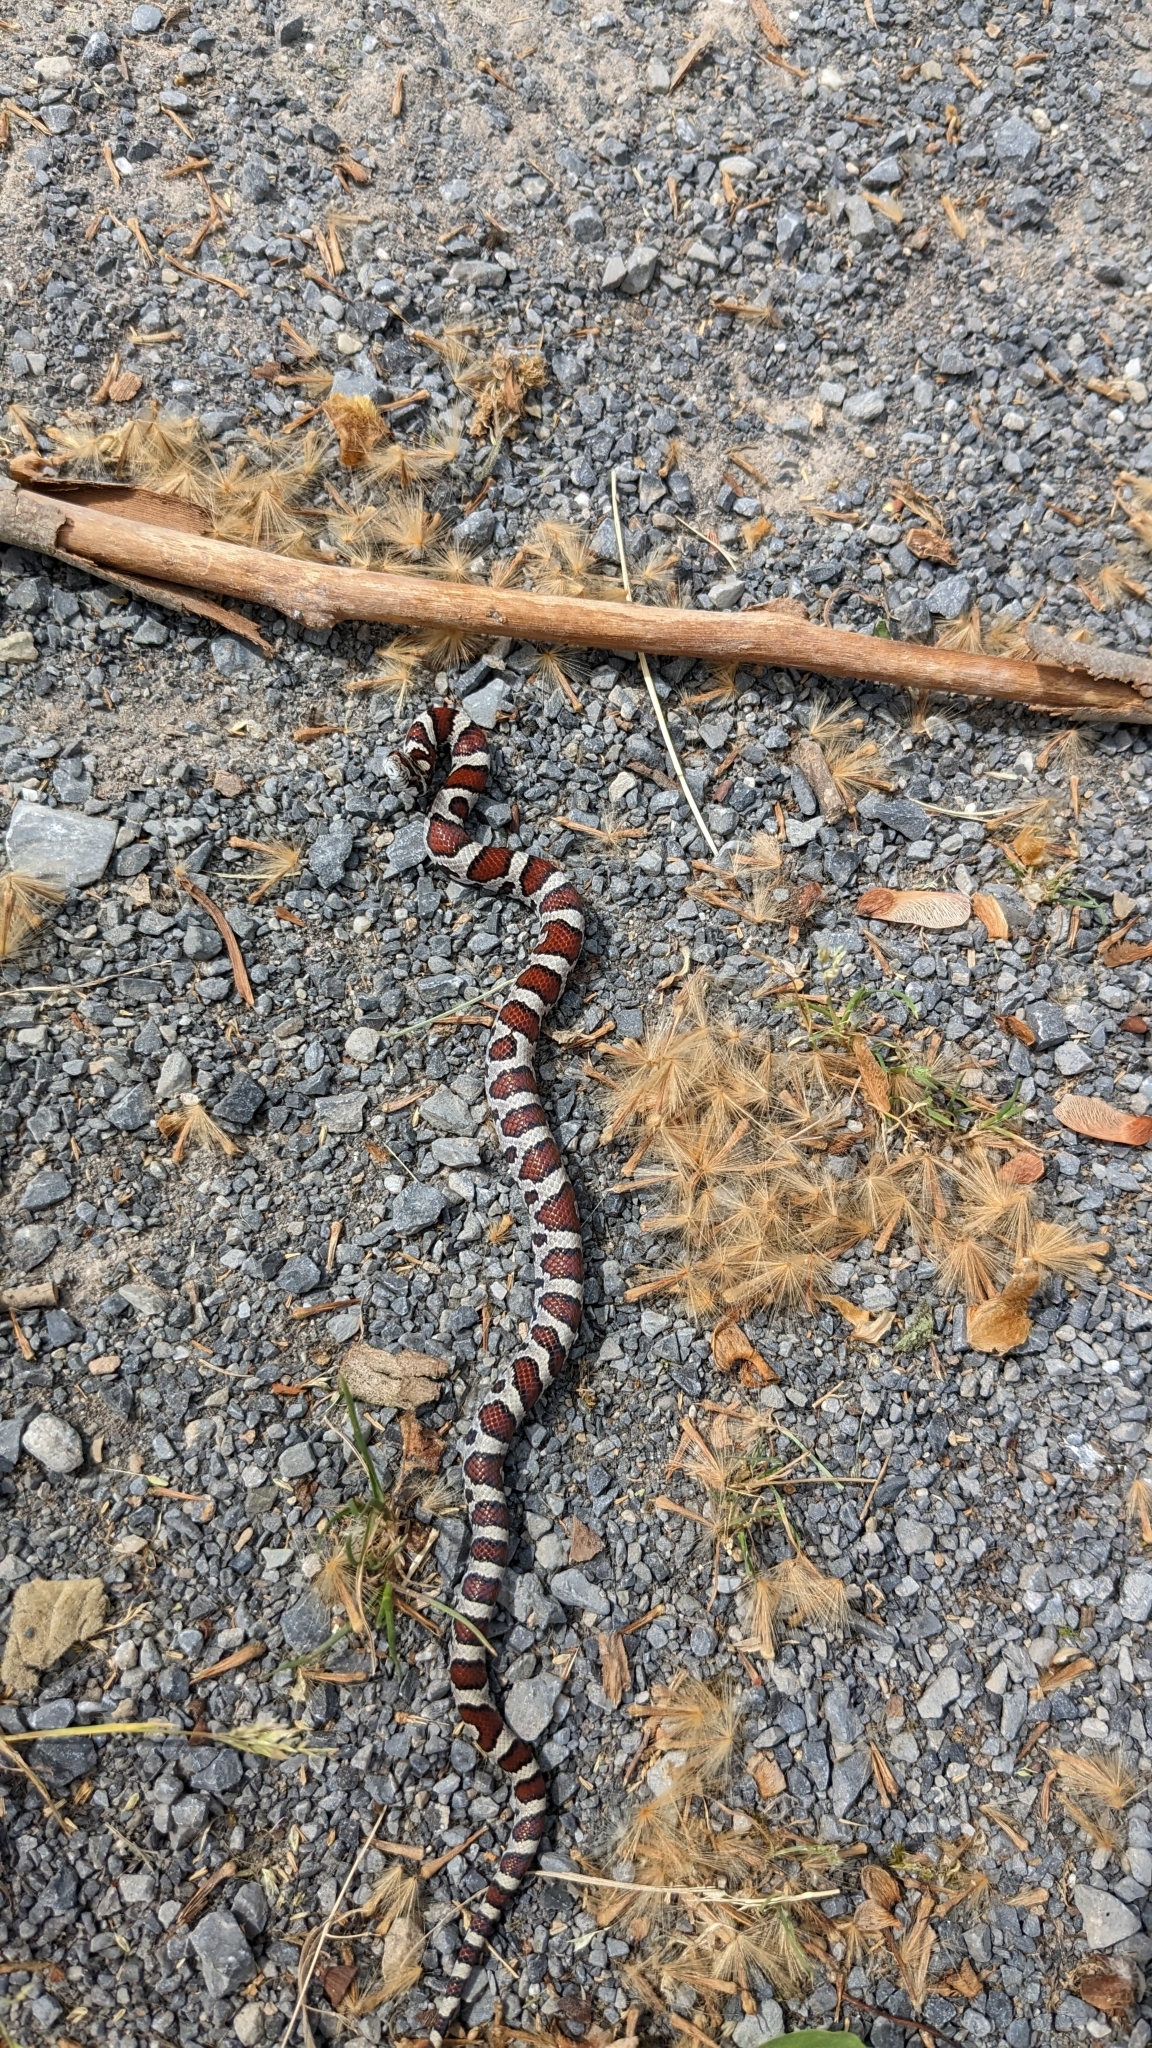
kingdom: Animalia
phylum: Chordata
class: Squamata
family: Colubridae
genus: Lampropeltis
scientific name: Lampropeltis triangulum
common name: Eastern milksnake
